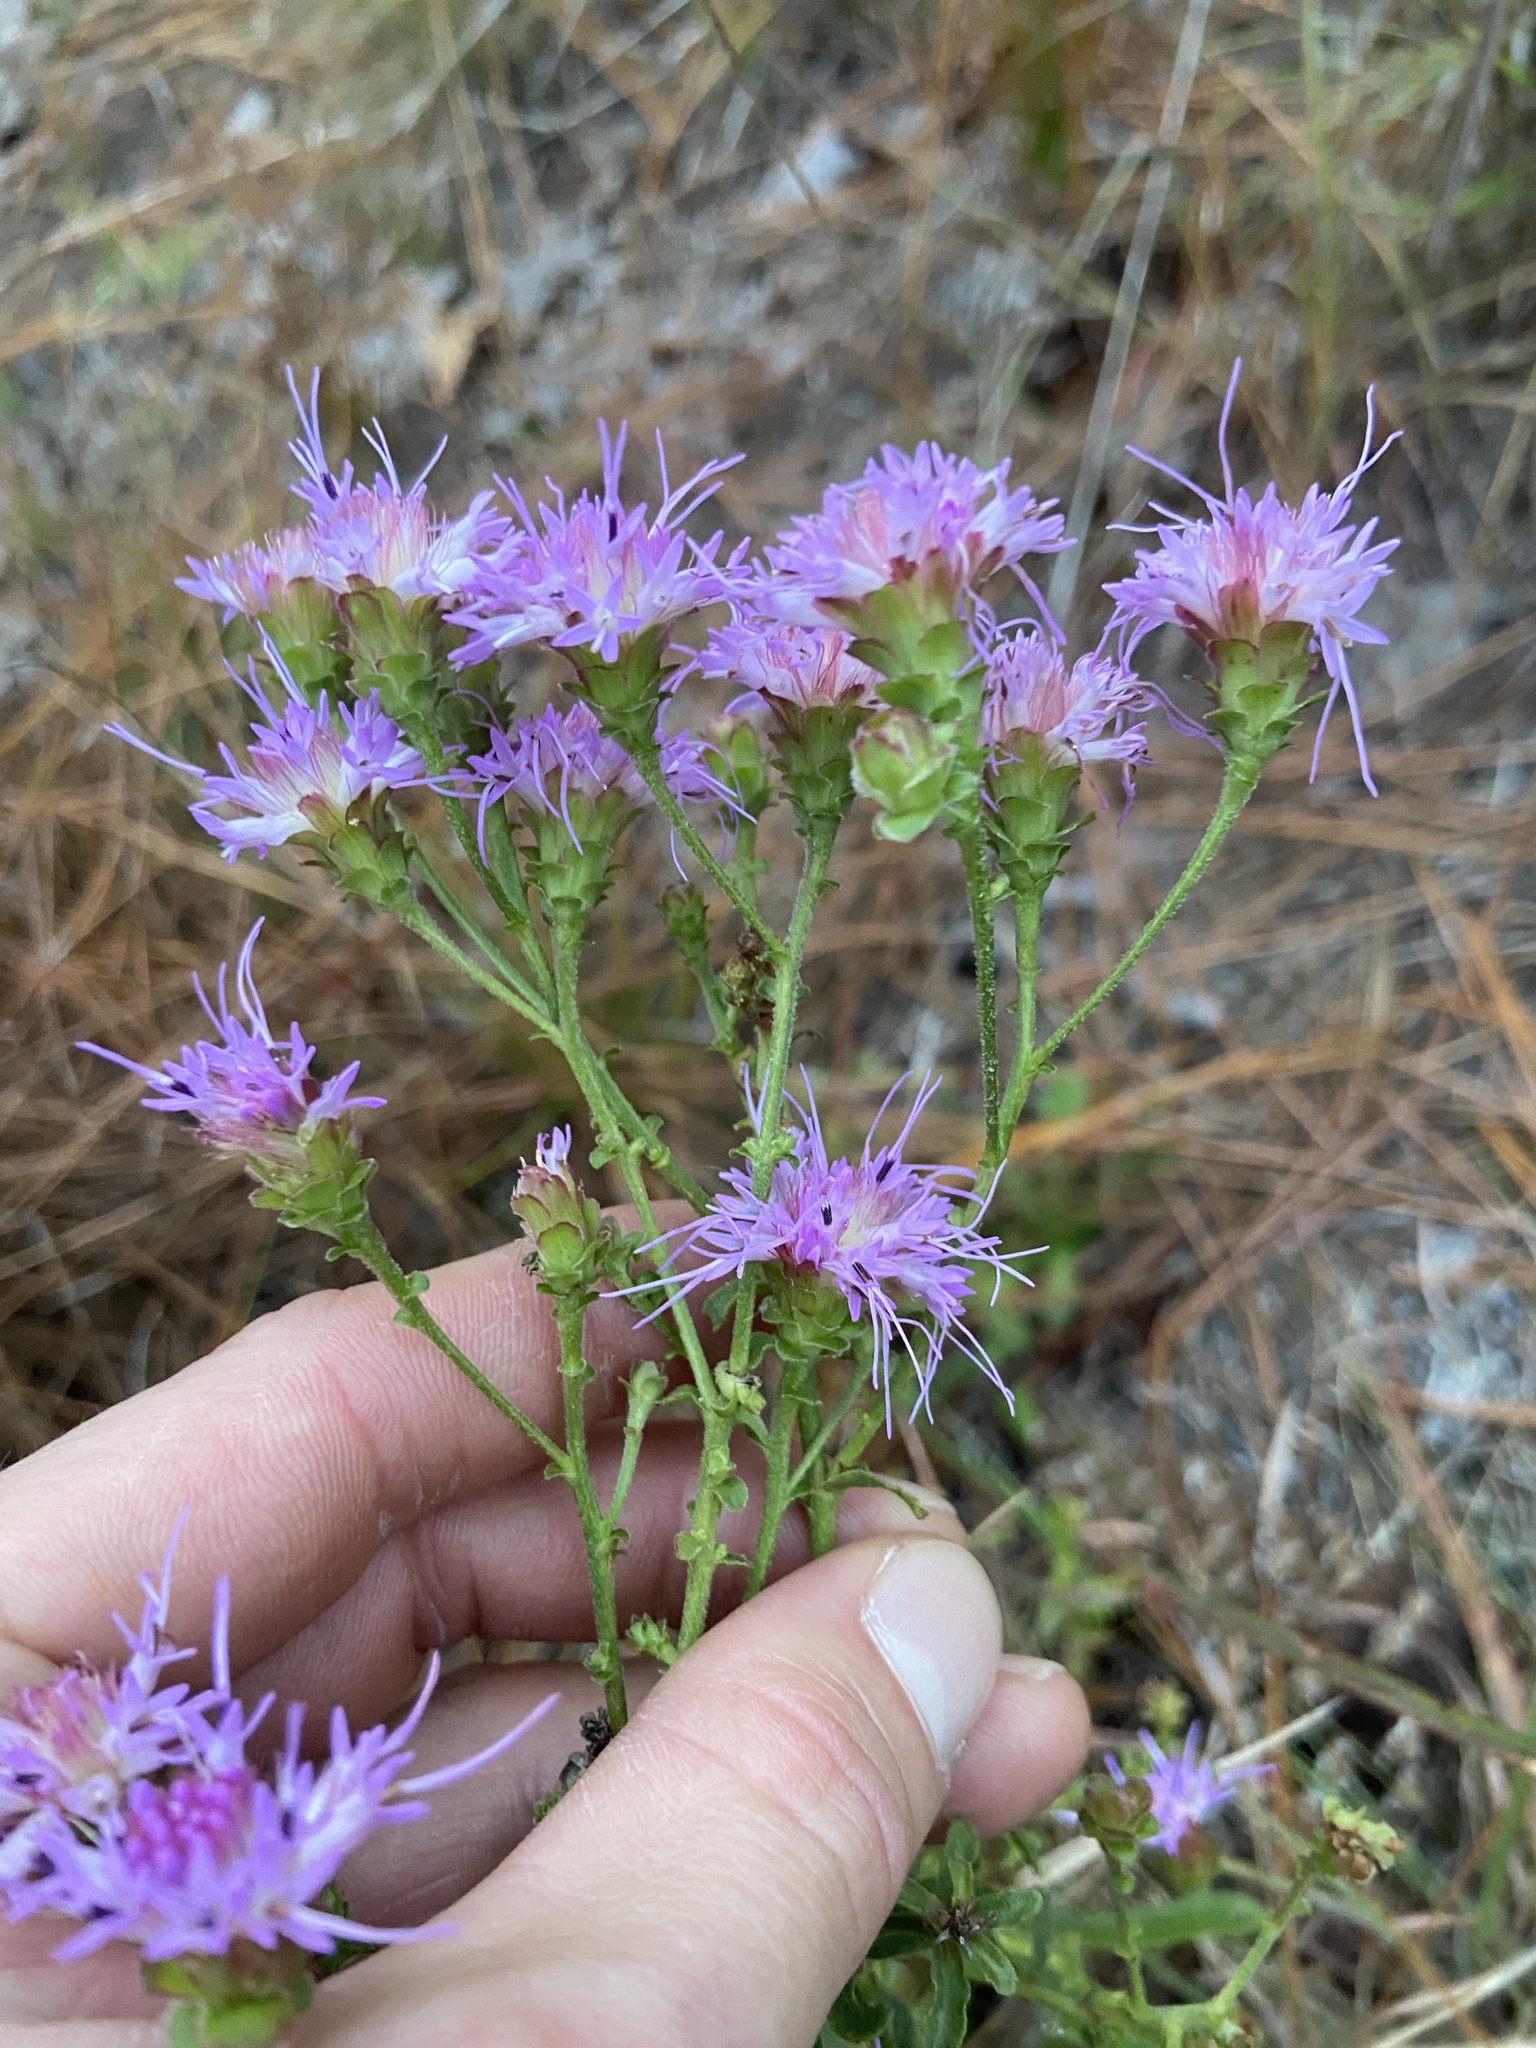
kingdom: Plantae
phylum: Tracheophyta
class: Magnoliopsida
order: Asterales
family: Asteraceae
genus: Carphephorus
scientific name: Carphephorus bellidifolius
